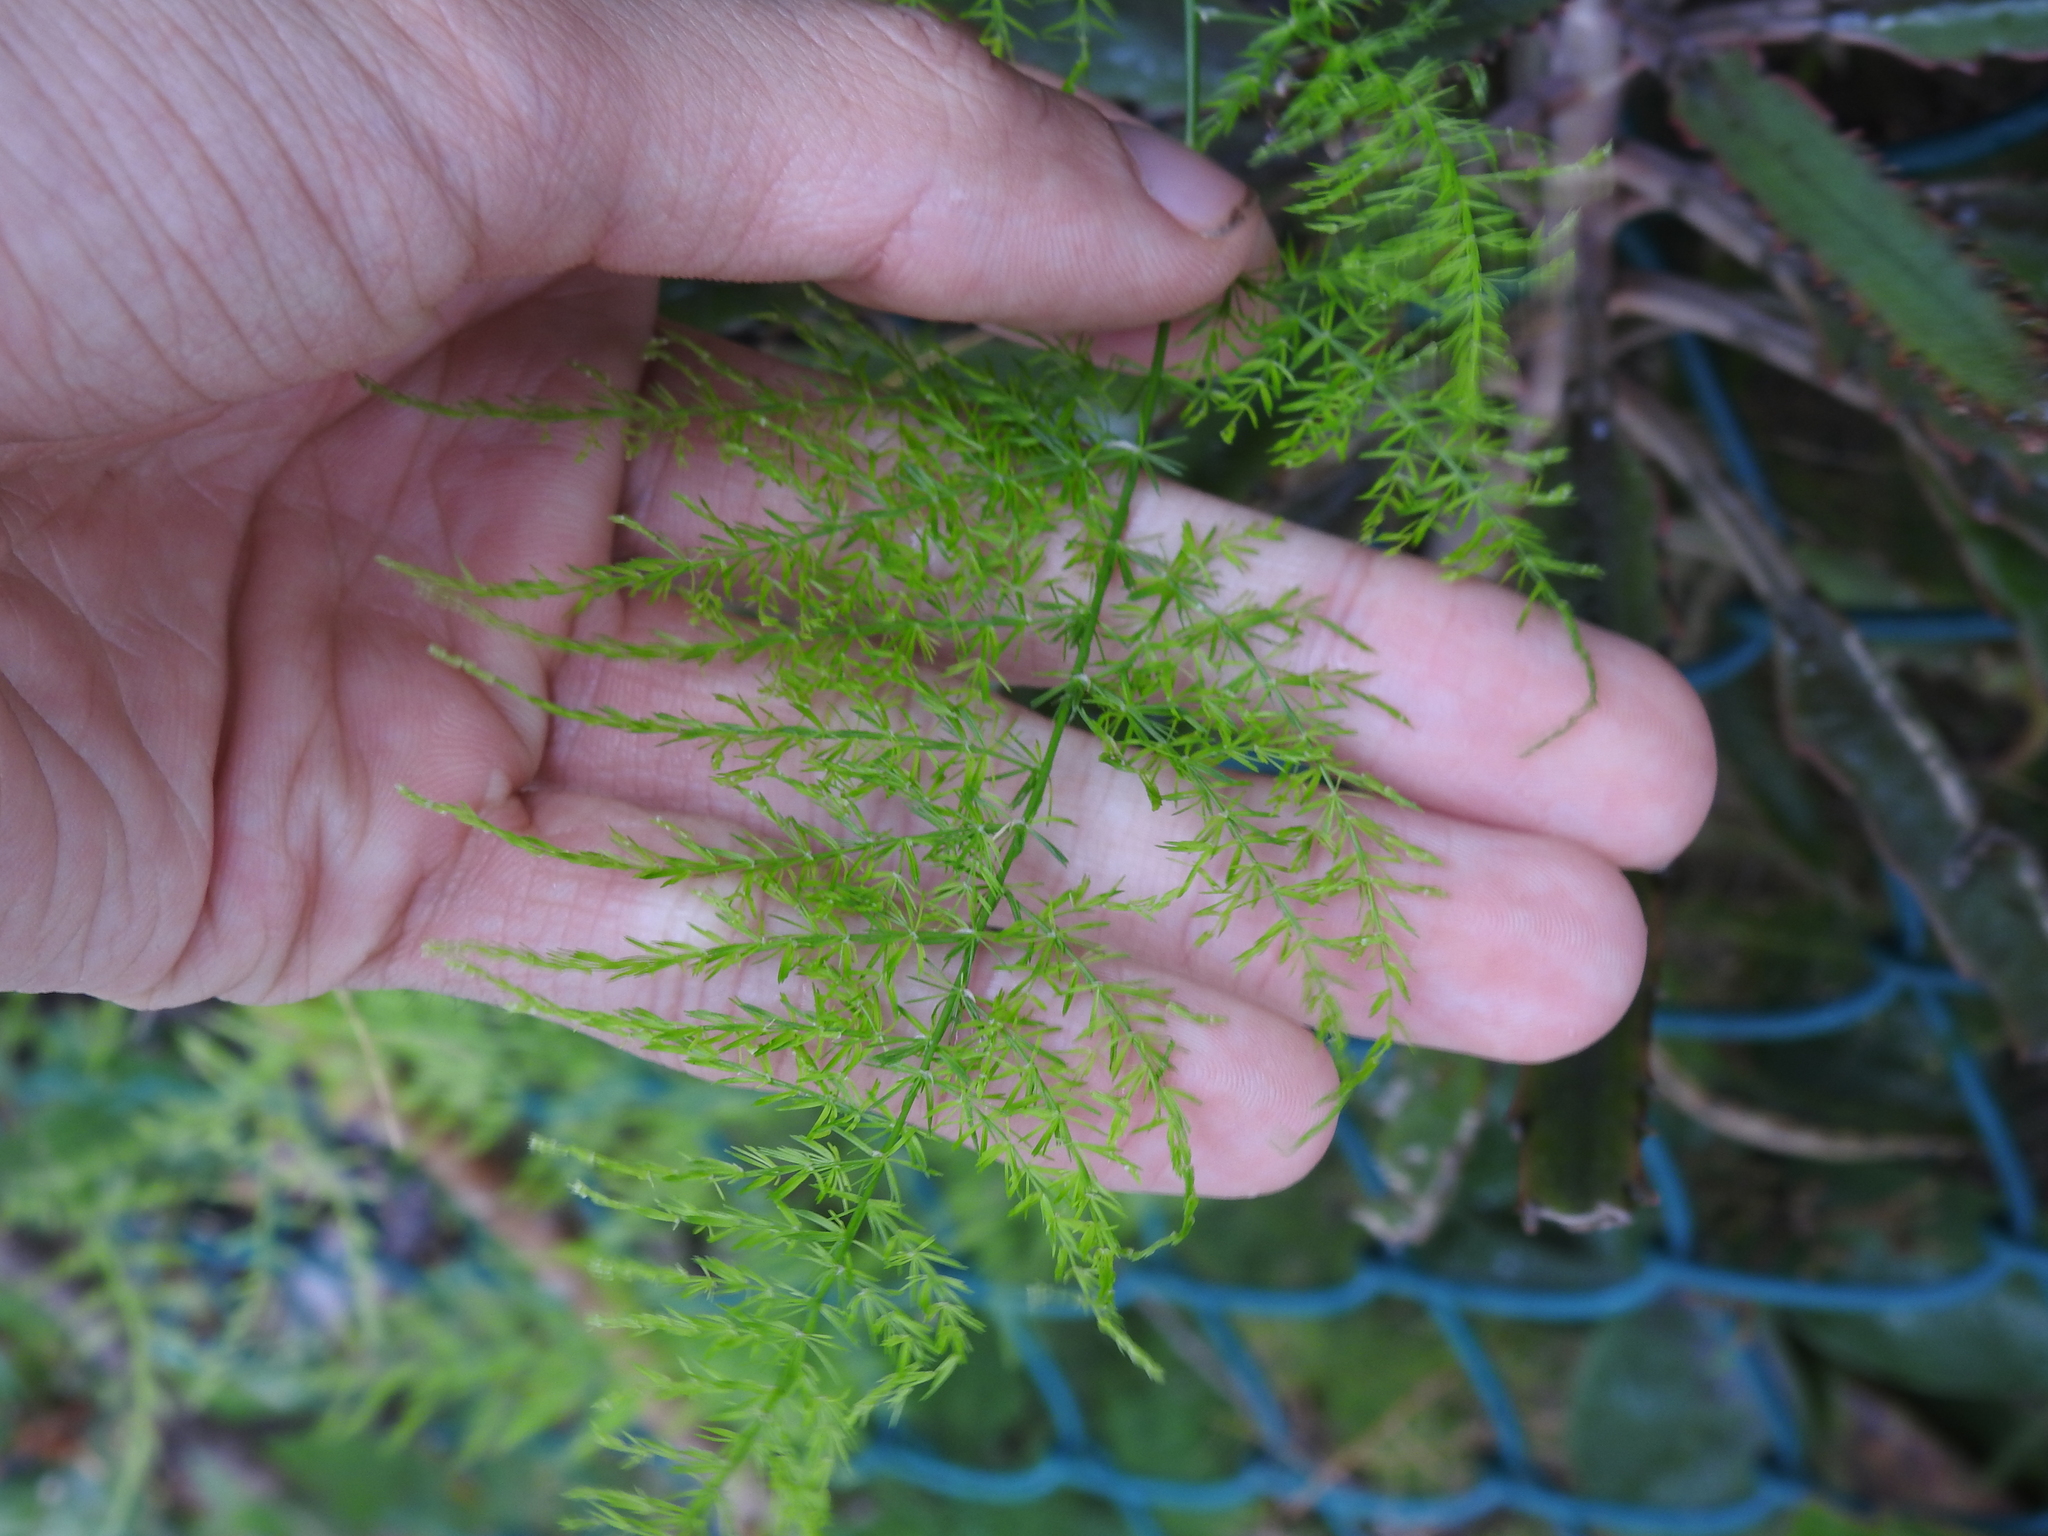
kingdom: Plantae
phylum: Tracheophyta
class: Liliopsida
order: Asparagales
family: Asparagaceae
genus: Asparagus
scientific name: Asparagus setaceus
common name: Common asparagus fern
